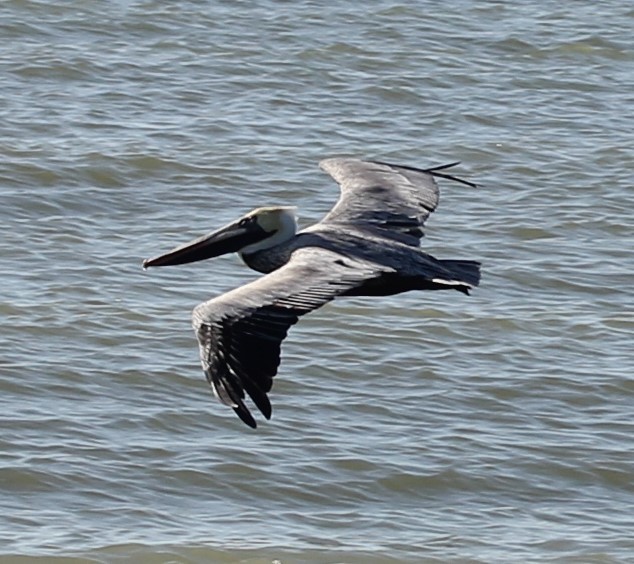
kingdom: Animalia
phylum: Chordata
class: Aves
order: Pelecaniformes
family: Pelecanidae
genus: Pelecanus
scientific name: Pelecanus occidentalis
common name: Brown pelican
